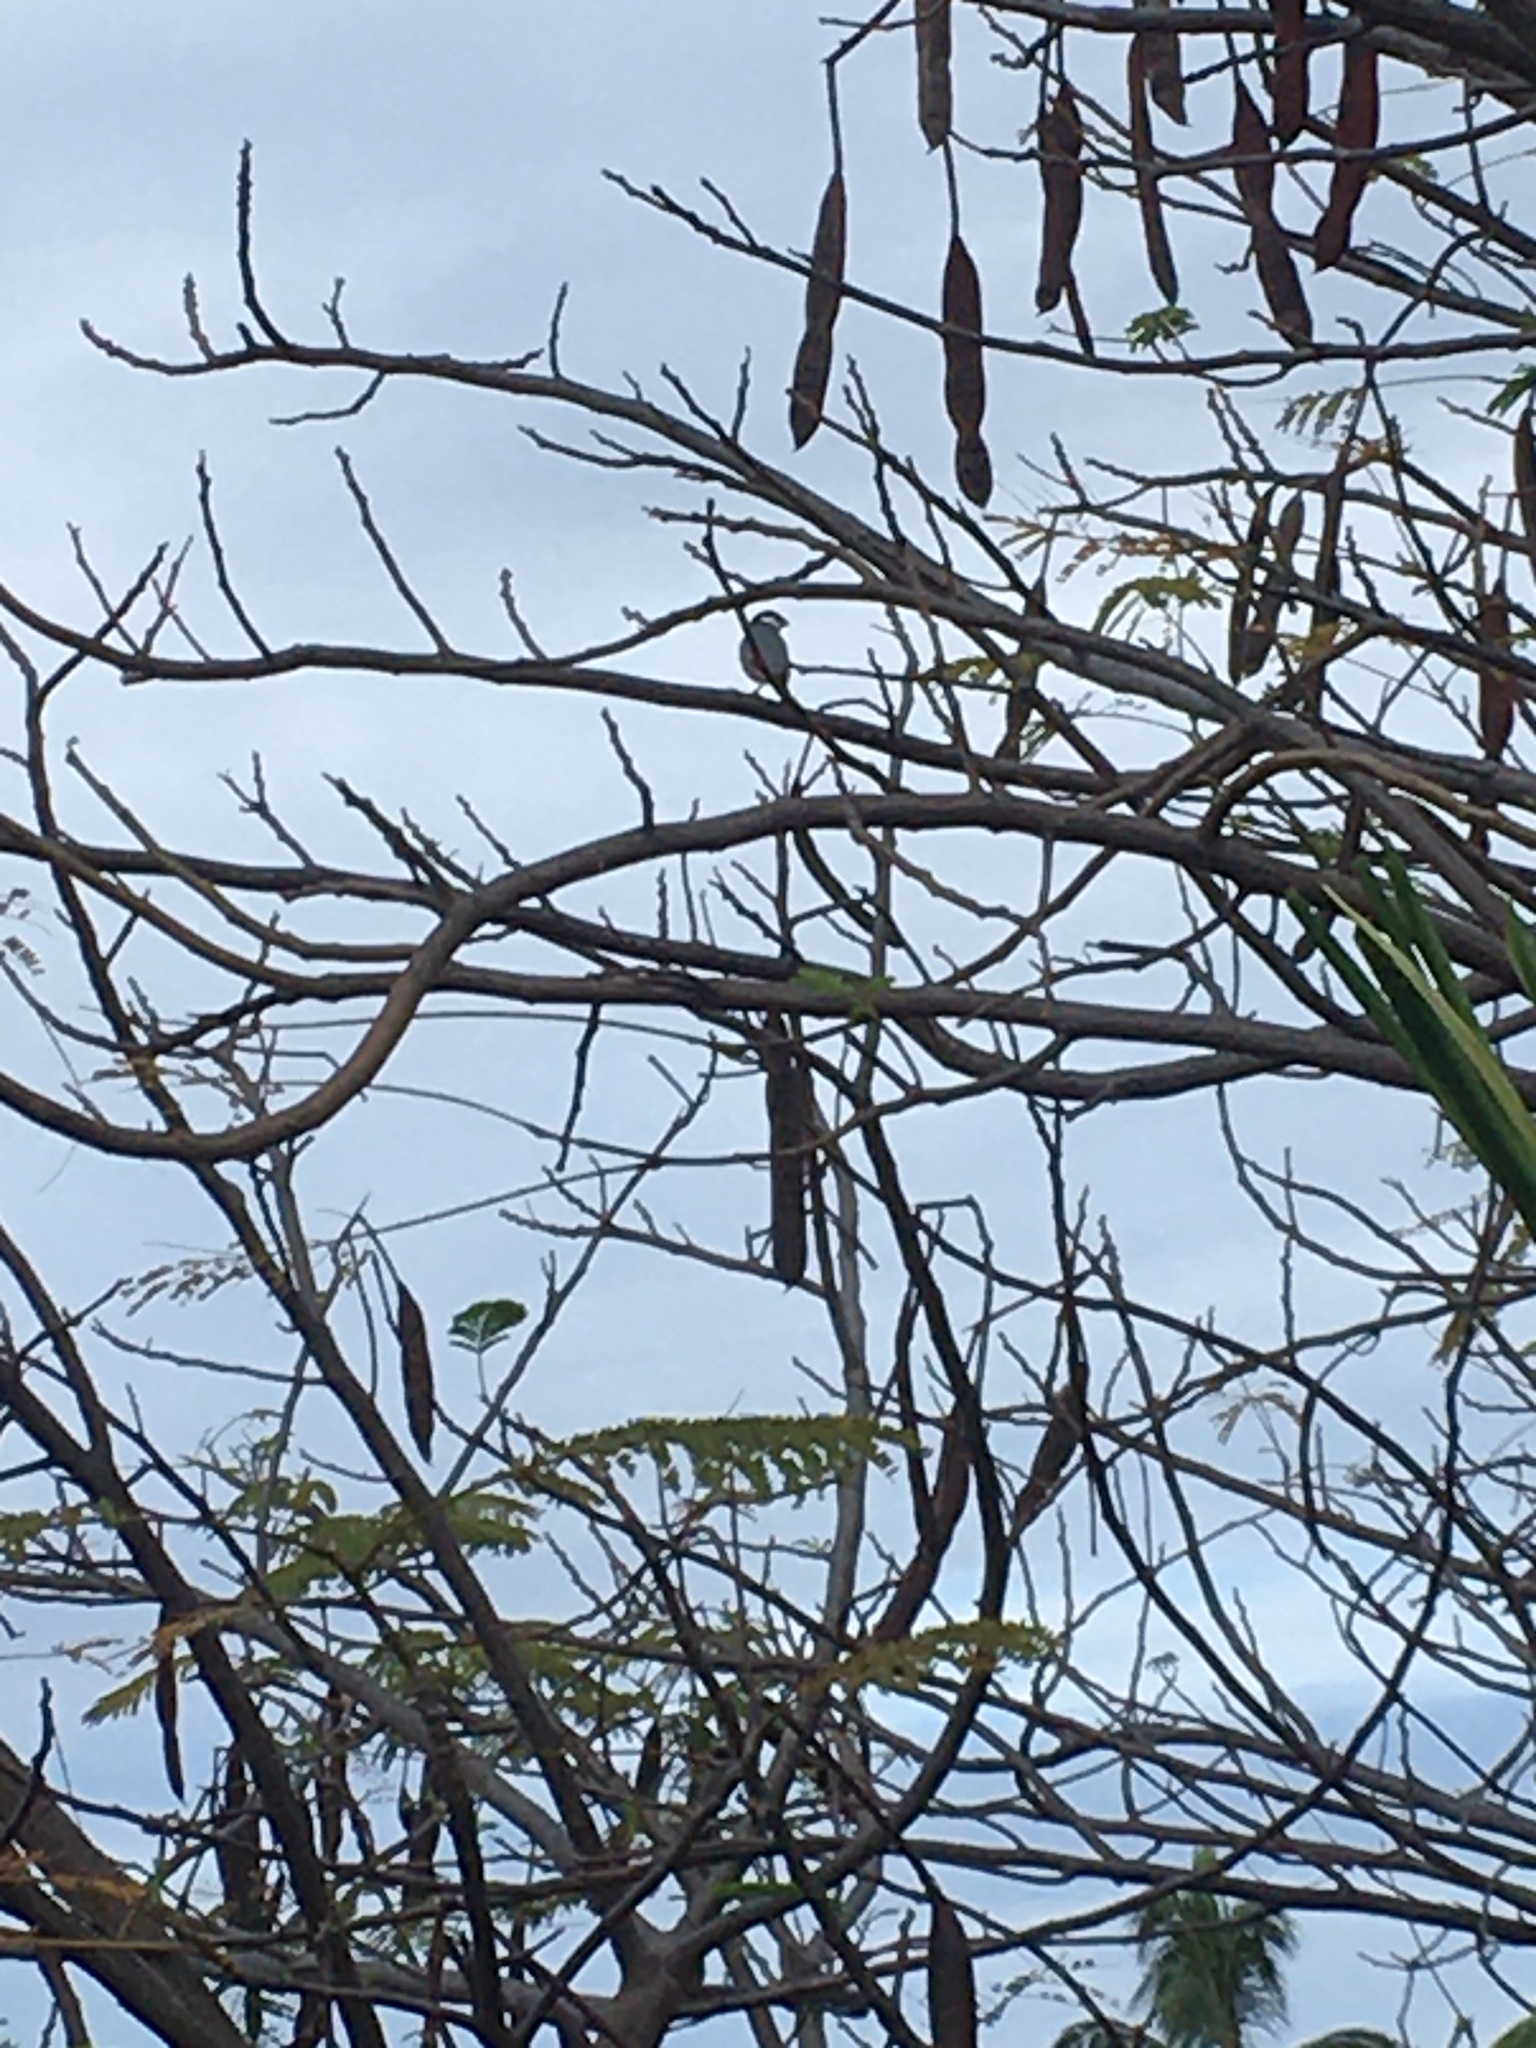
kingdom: Animalia
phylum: Chordata
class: Aves
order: Passeriformes
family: Estrildidae
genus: Lonchura
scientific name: Lonchura oryzivora
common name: Java sparrow
